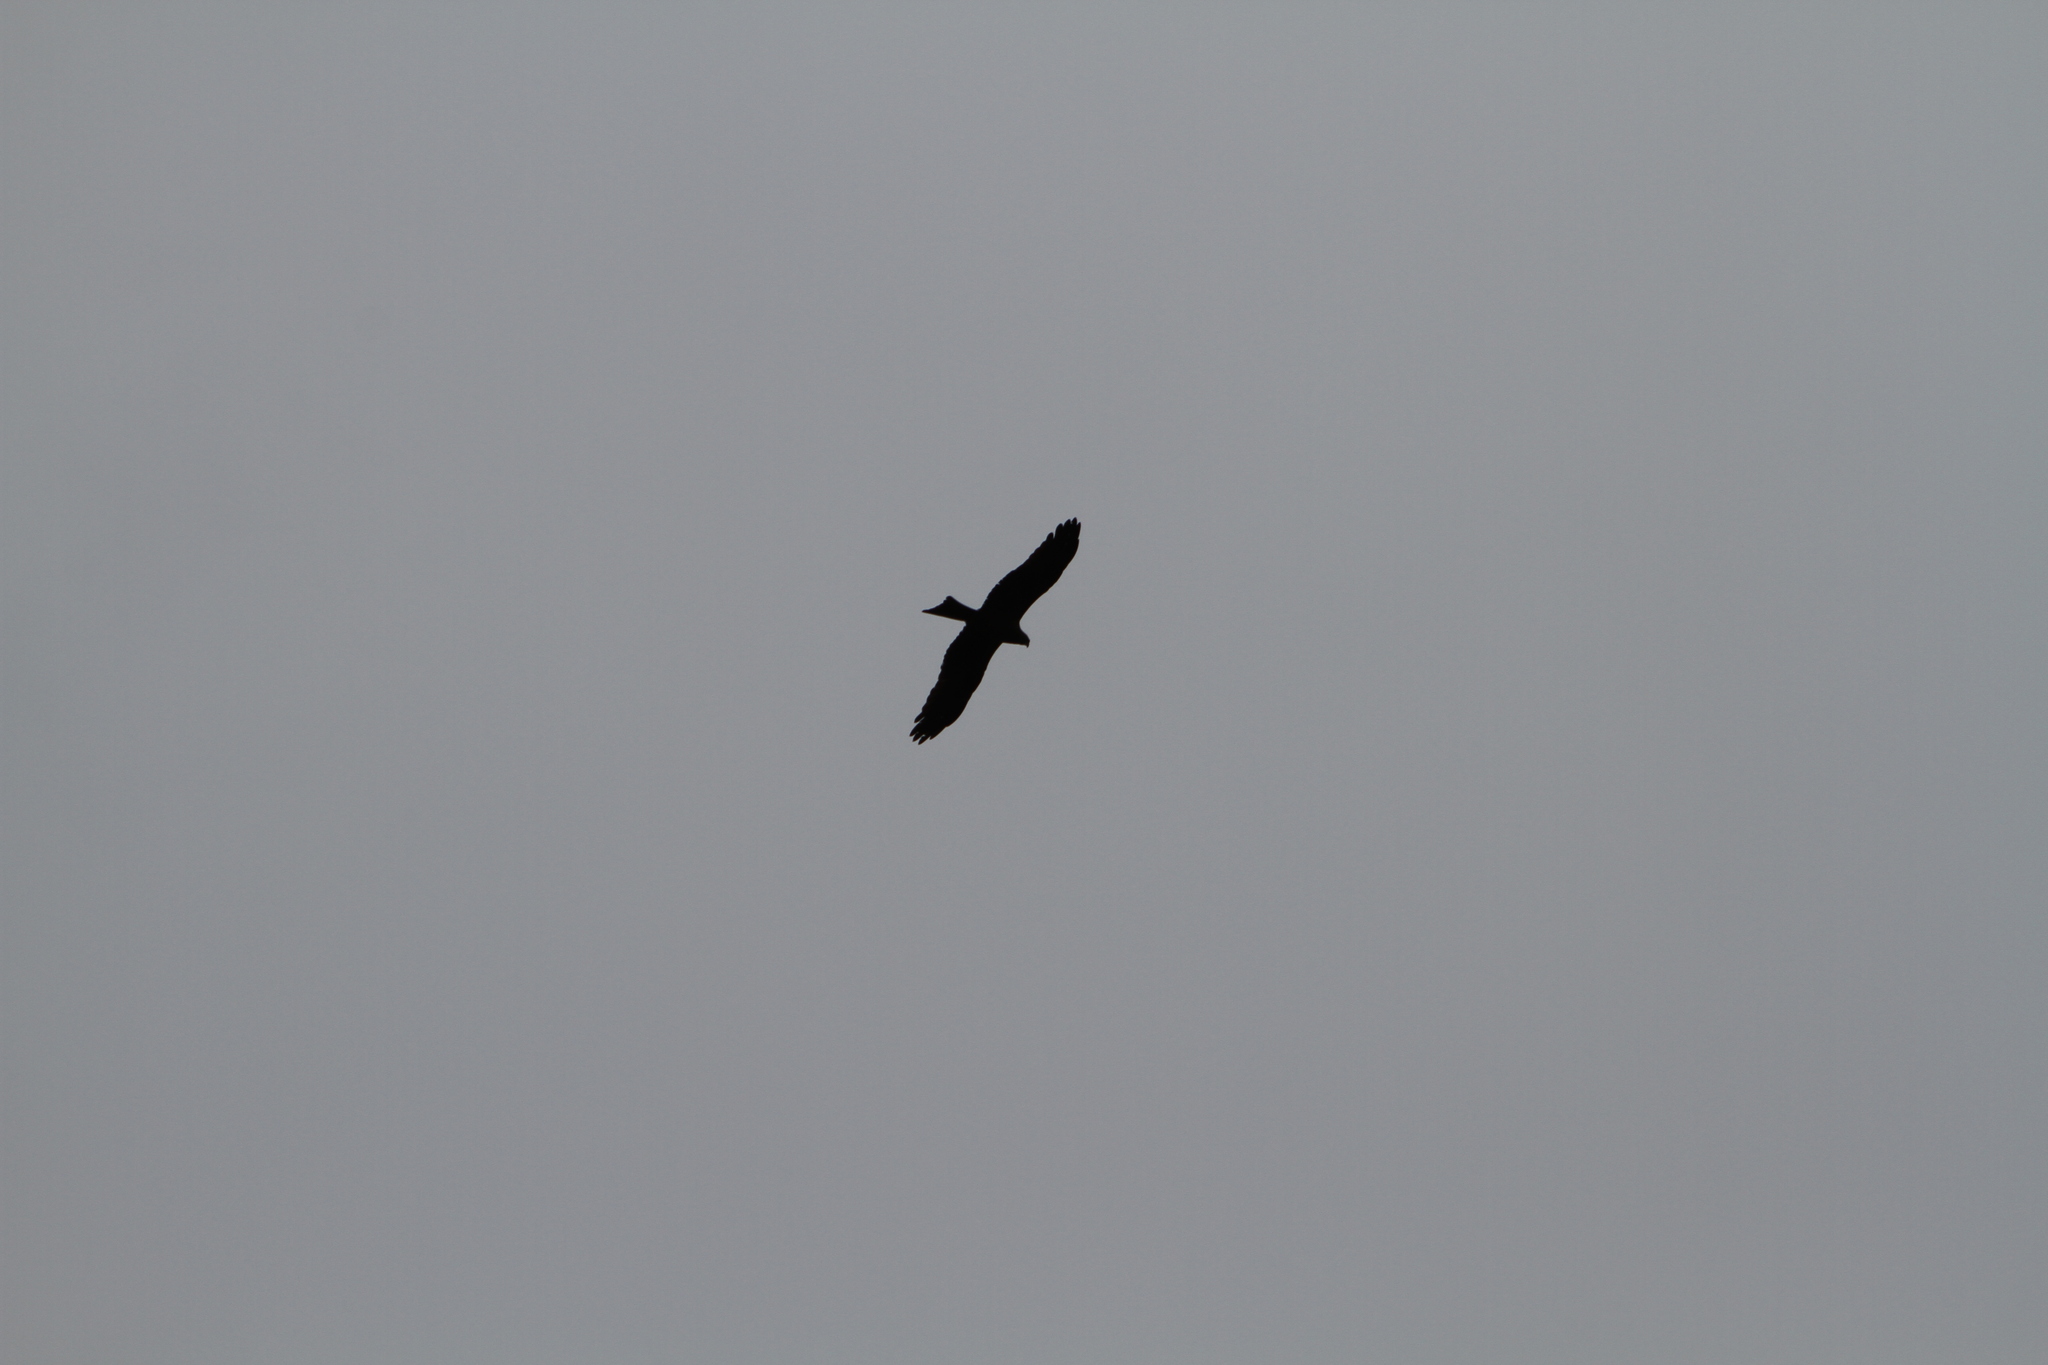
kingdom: Animalia
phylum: Chordata
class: Aves
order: Accipitriformes
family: Accipitridae
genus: Milvus
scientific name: Milvus migrans
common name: Black kite
